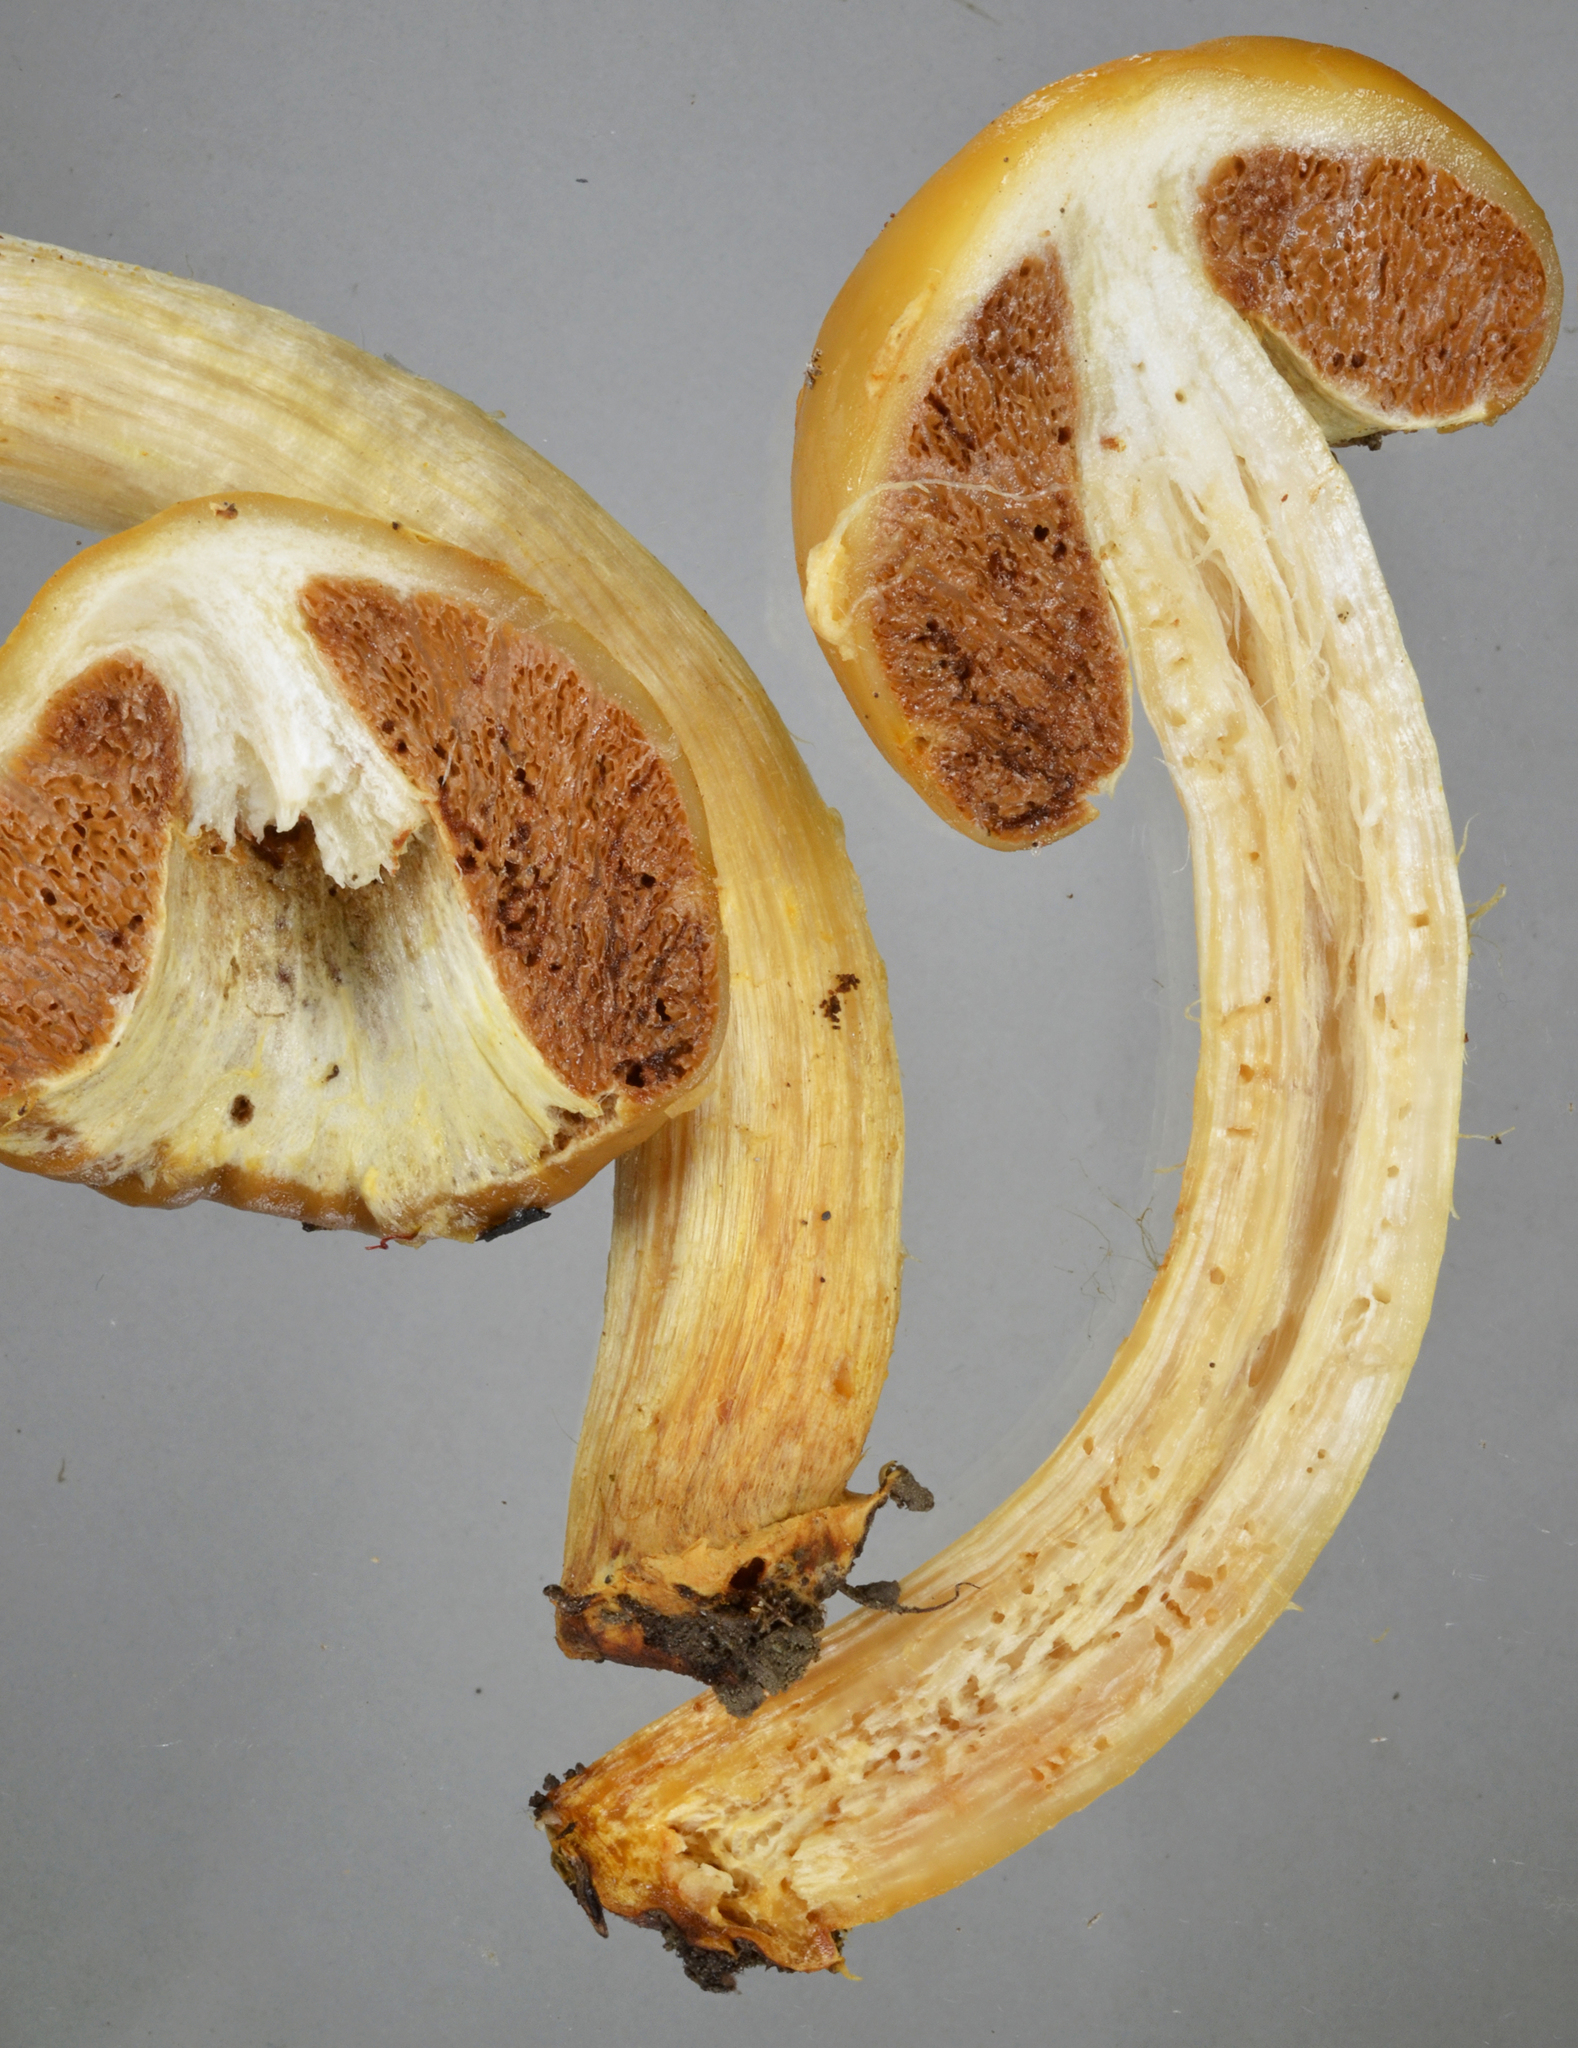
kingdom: Fungi
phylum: Basidiomycota
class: Agaricomycetes
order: Agaricales
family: Cortinariaceae
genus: Cortinarius
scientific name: Cortinarius epiphaeus
